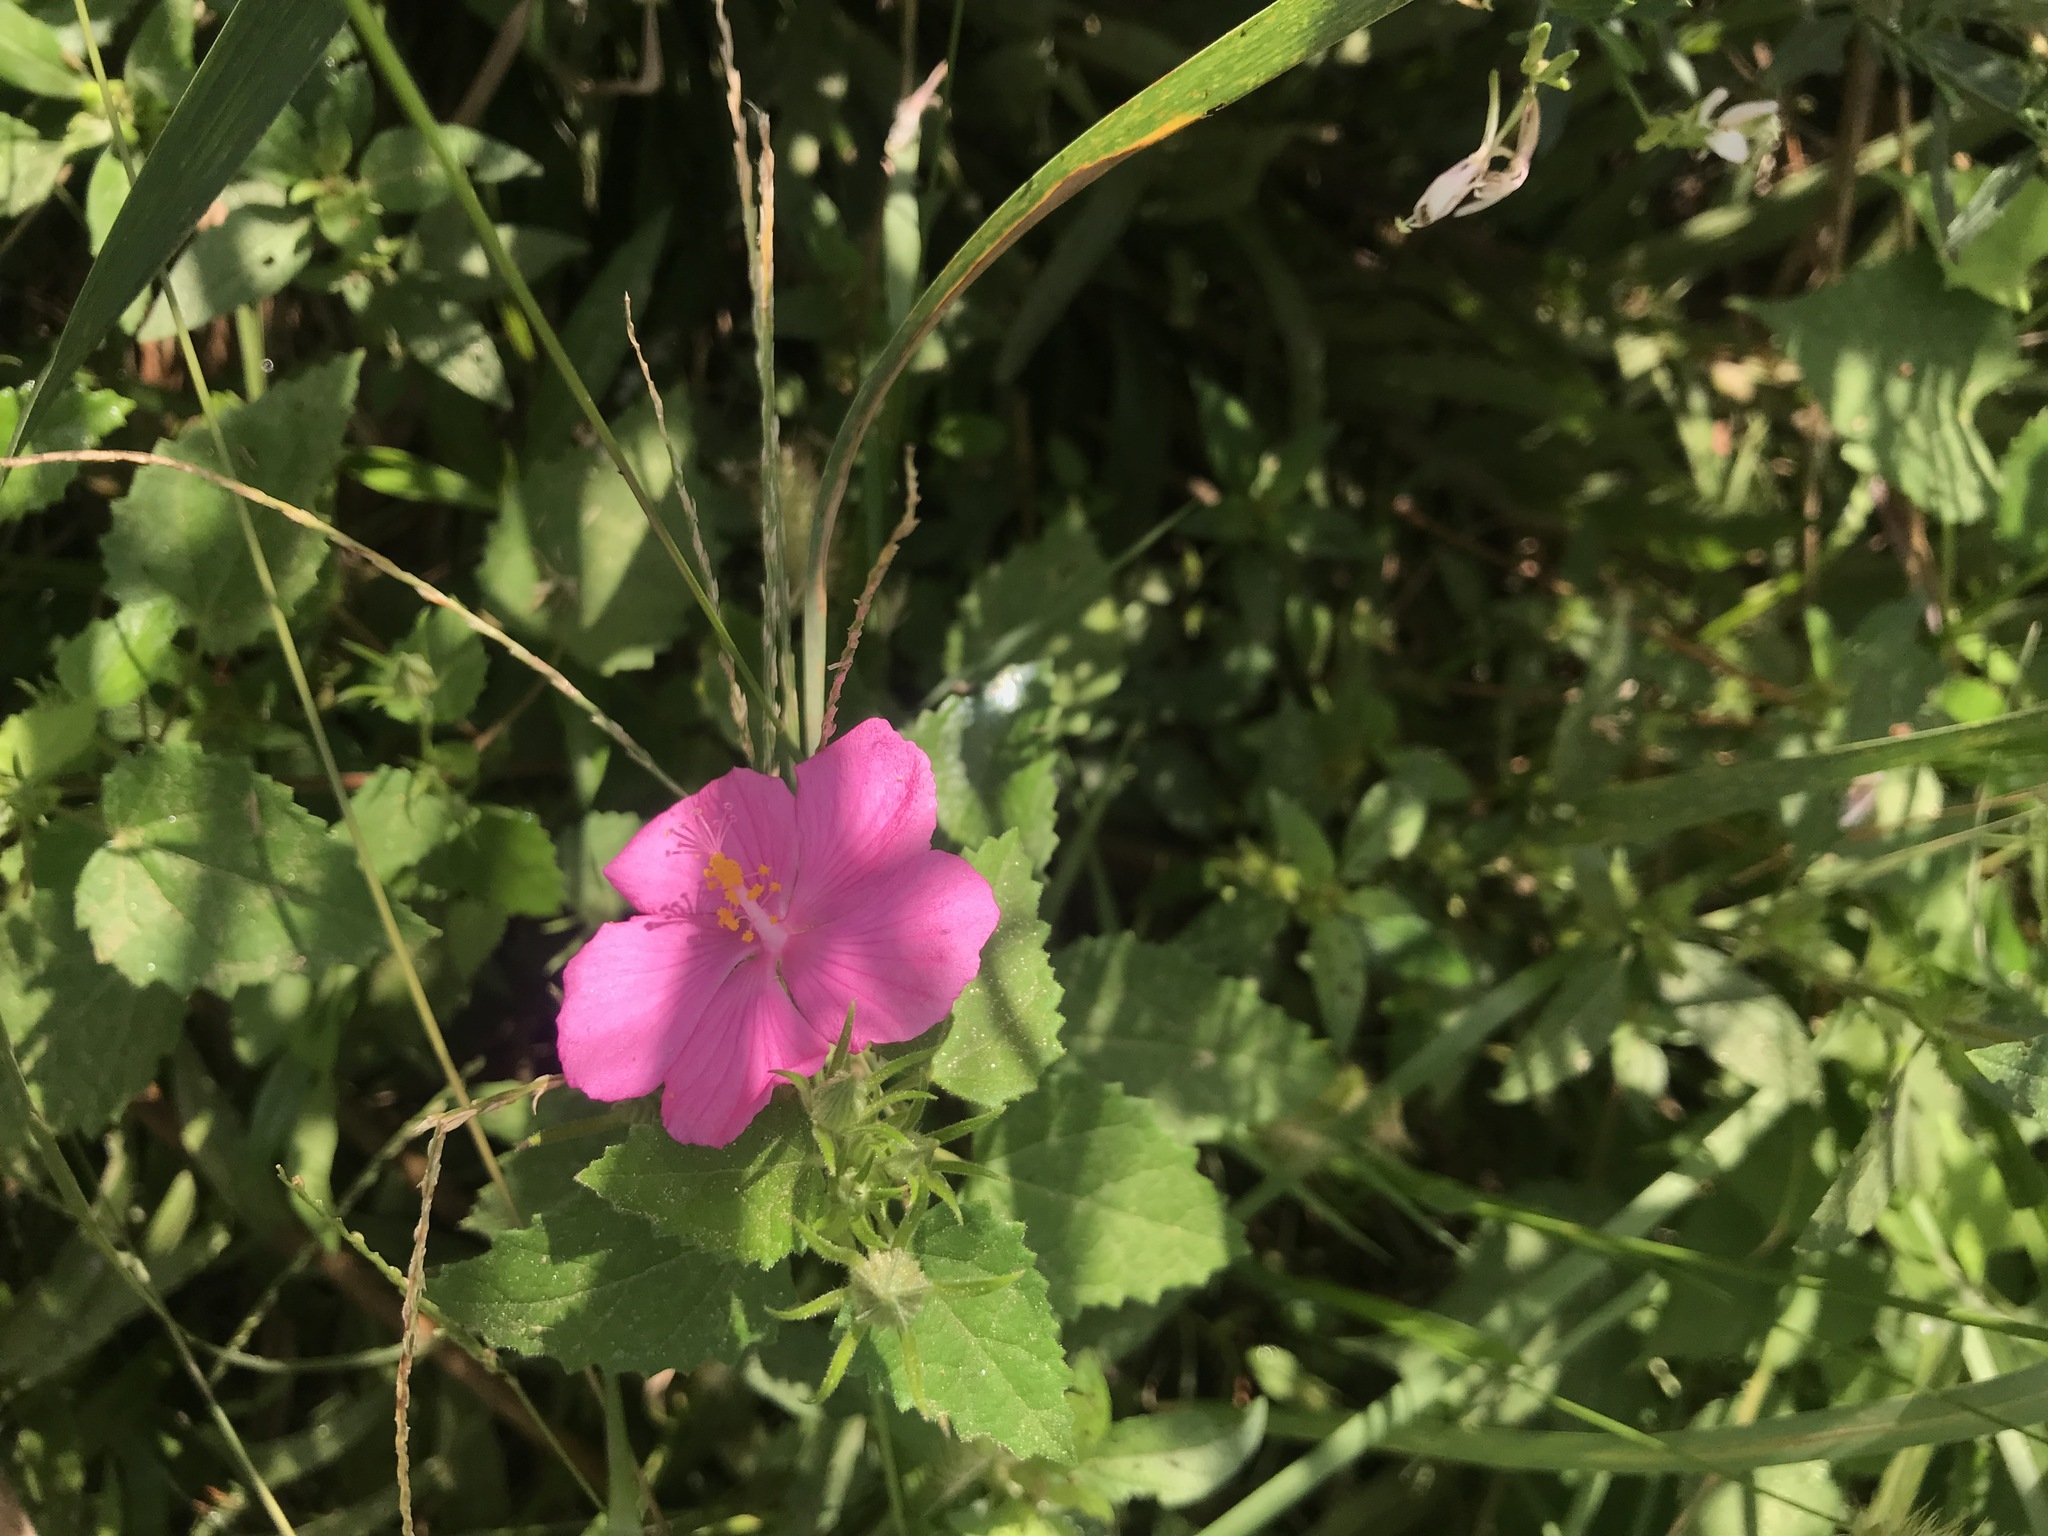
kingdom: Plantae
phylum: Tracheophyta
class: Magnoliopsida
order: Malvales
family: Malvaceae
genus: Pavonia
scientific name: Pavonia lasiopetala
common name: Texas swamp-mallow
